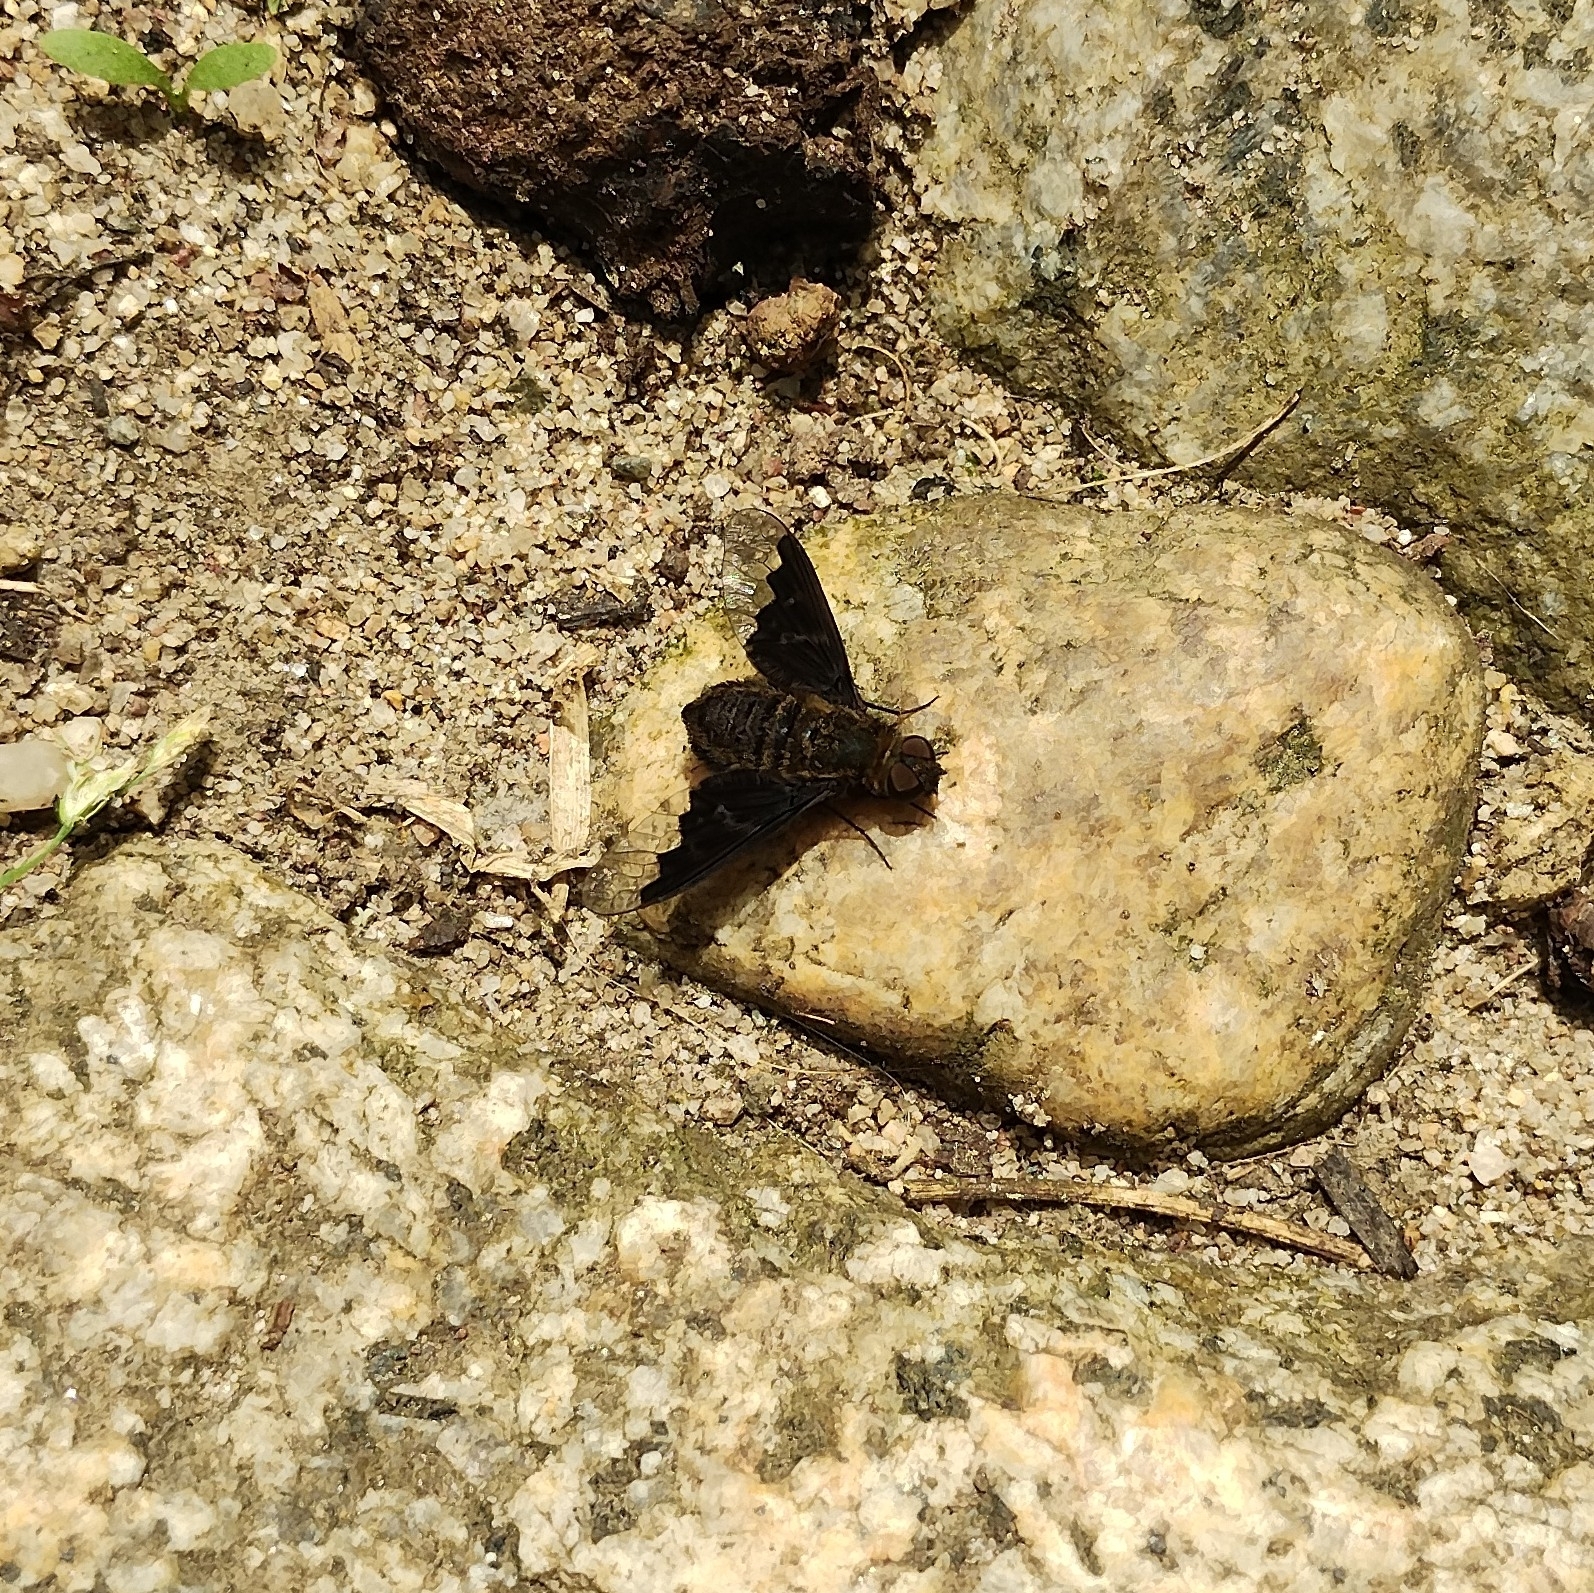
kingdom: Animalia
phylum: Arthropoda
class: Insecta
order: Diptera
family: Bombyliidae
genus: Hemipenthes
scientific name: Hemipenthes morio
